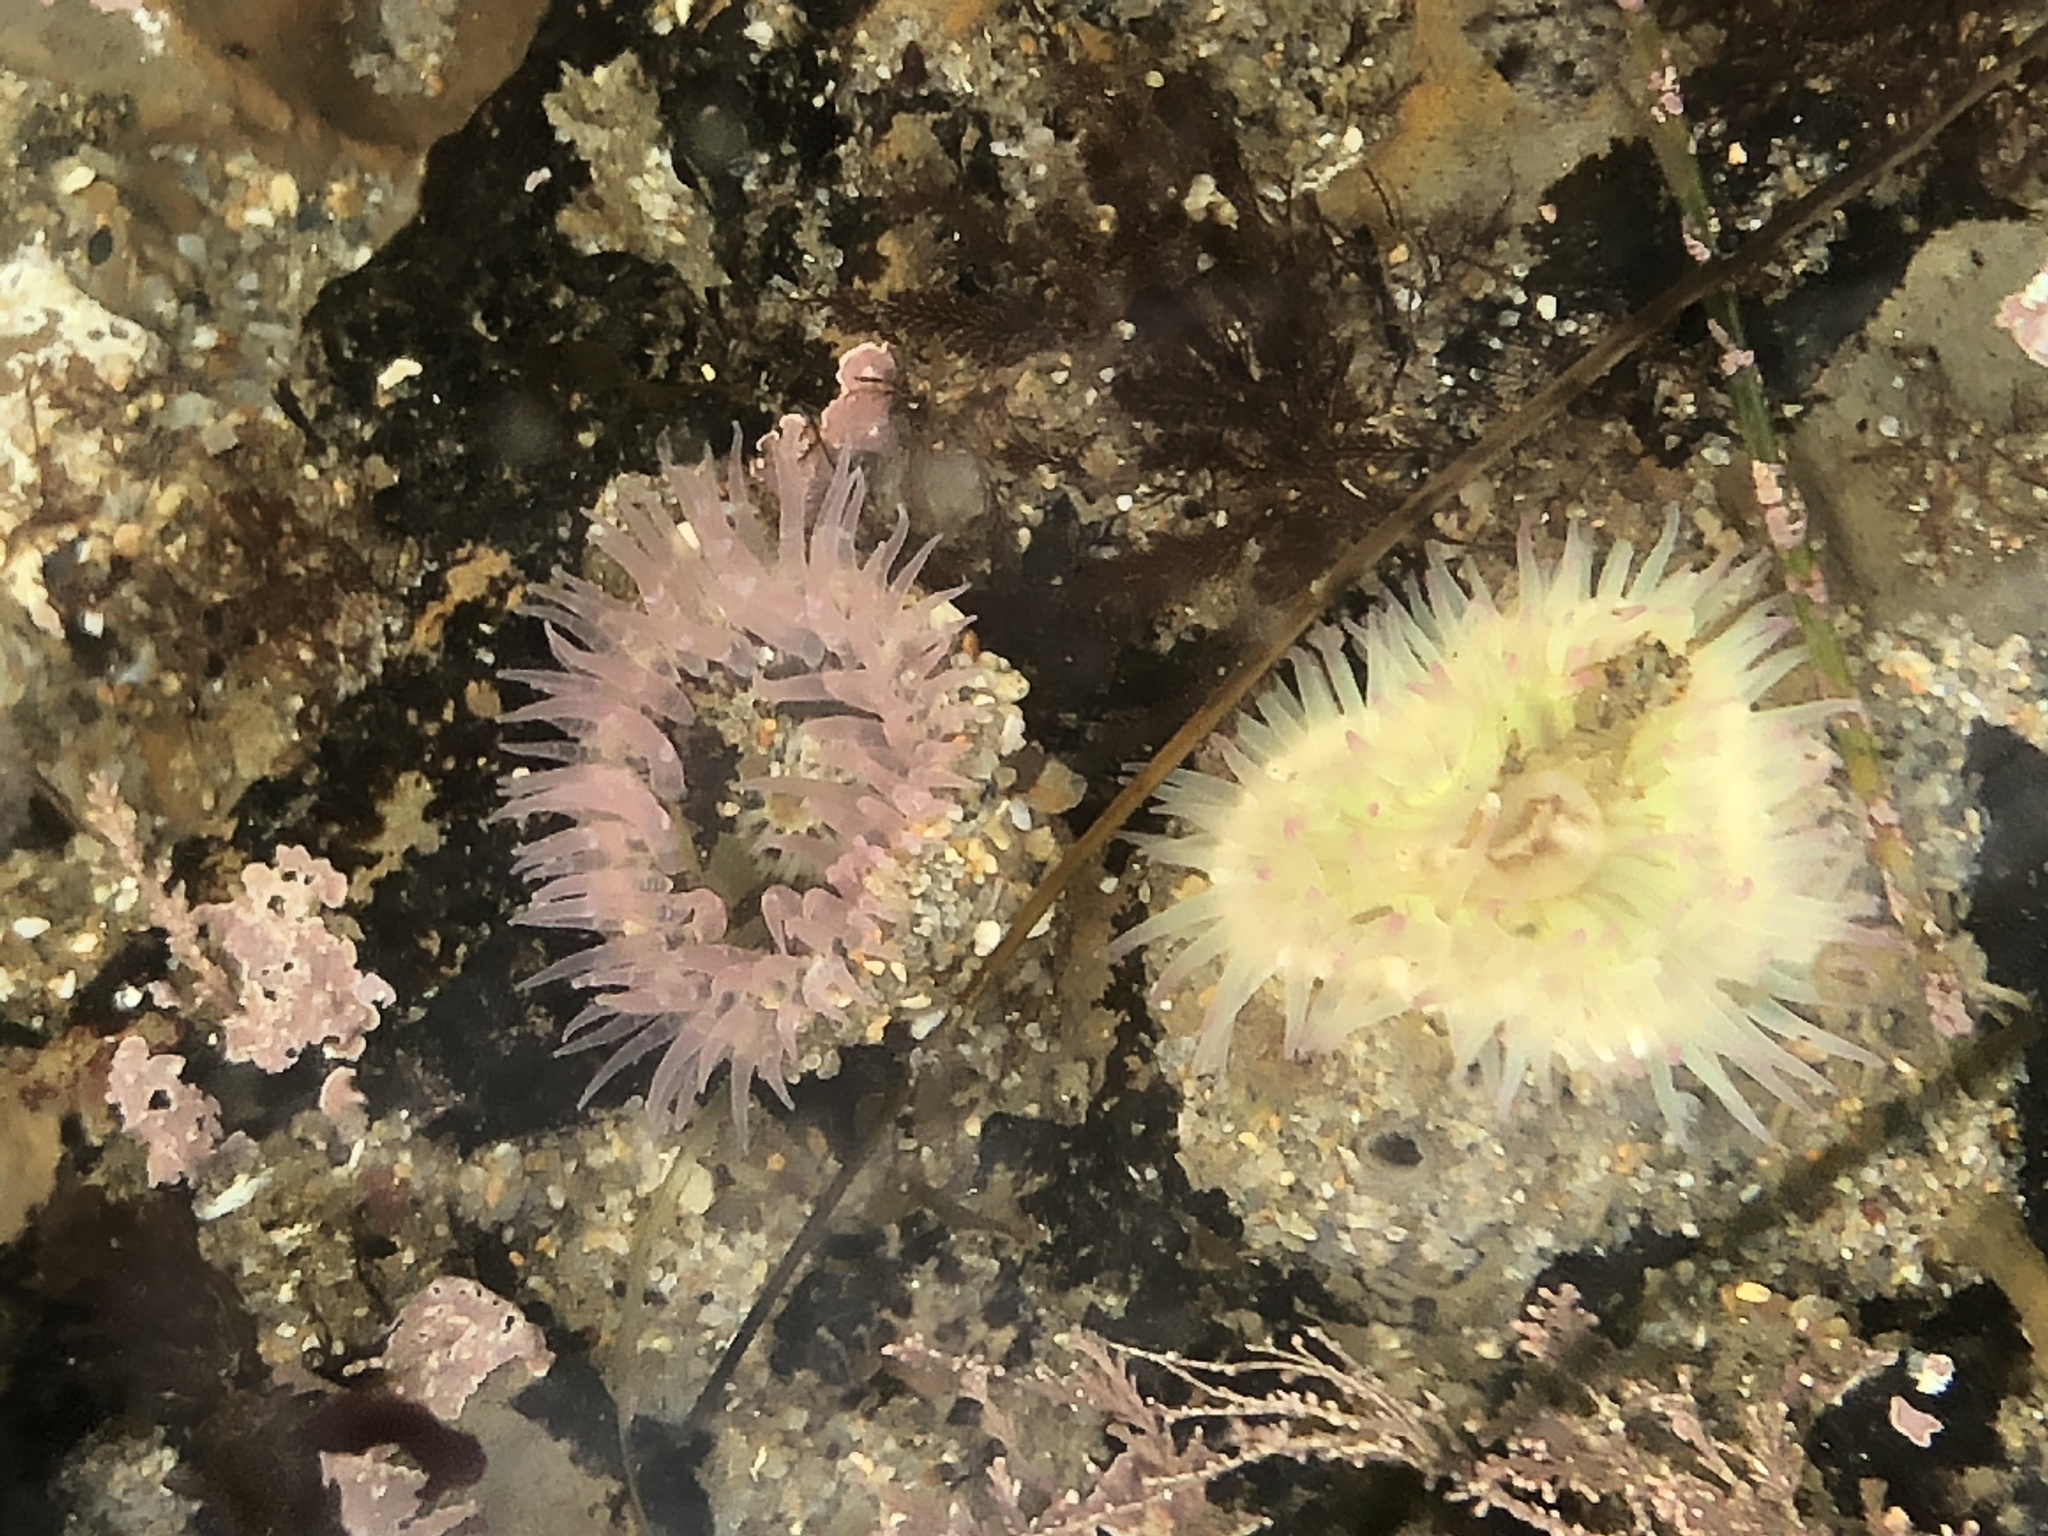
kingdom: Animalia
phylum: Cnidaria
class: Anthozoa
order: Actiniaria
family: Actiniidae
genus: Anthopleura
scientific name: Anthopleura elegantissima
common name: Clonal anemone
